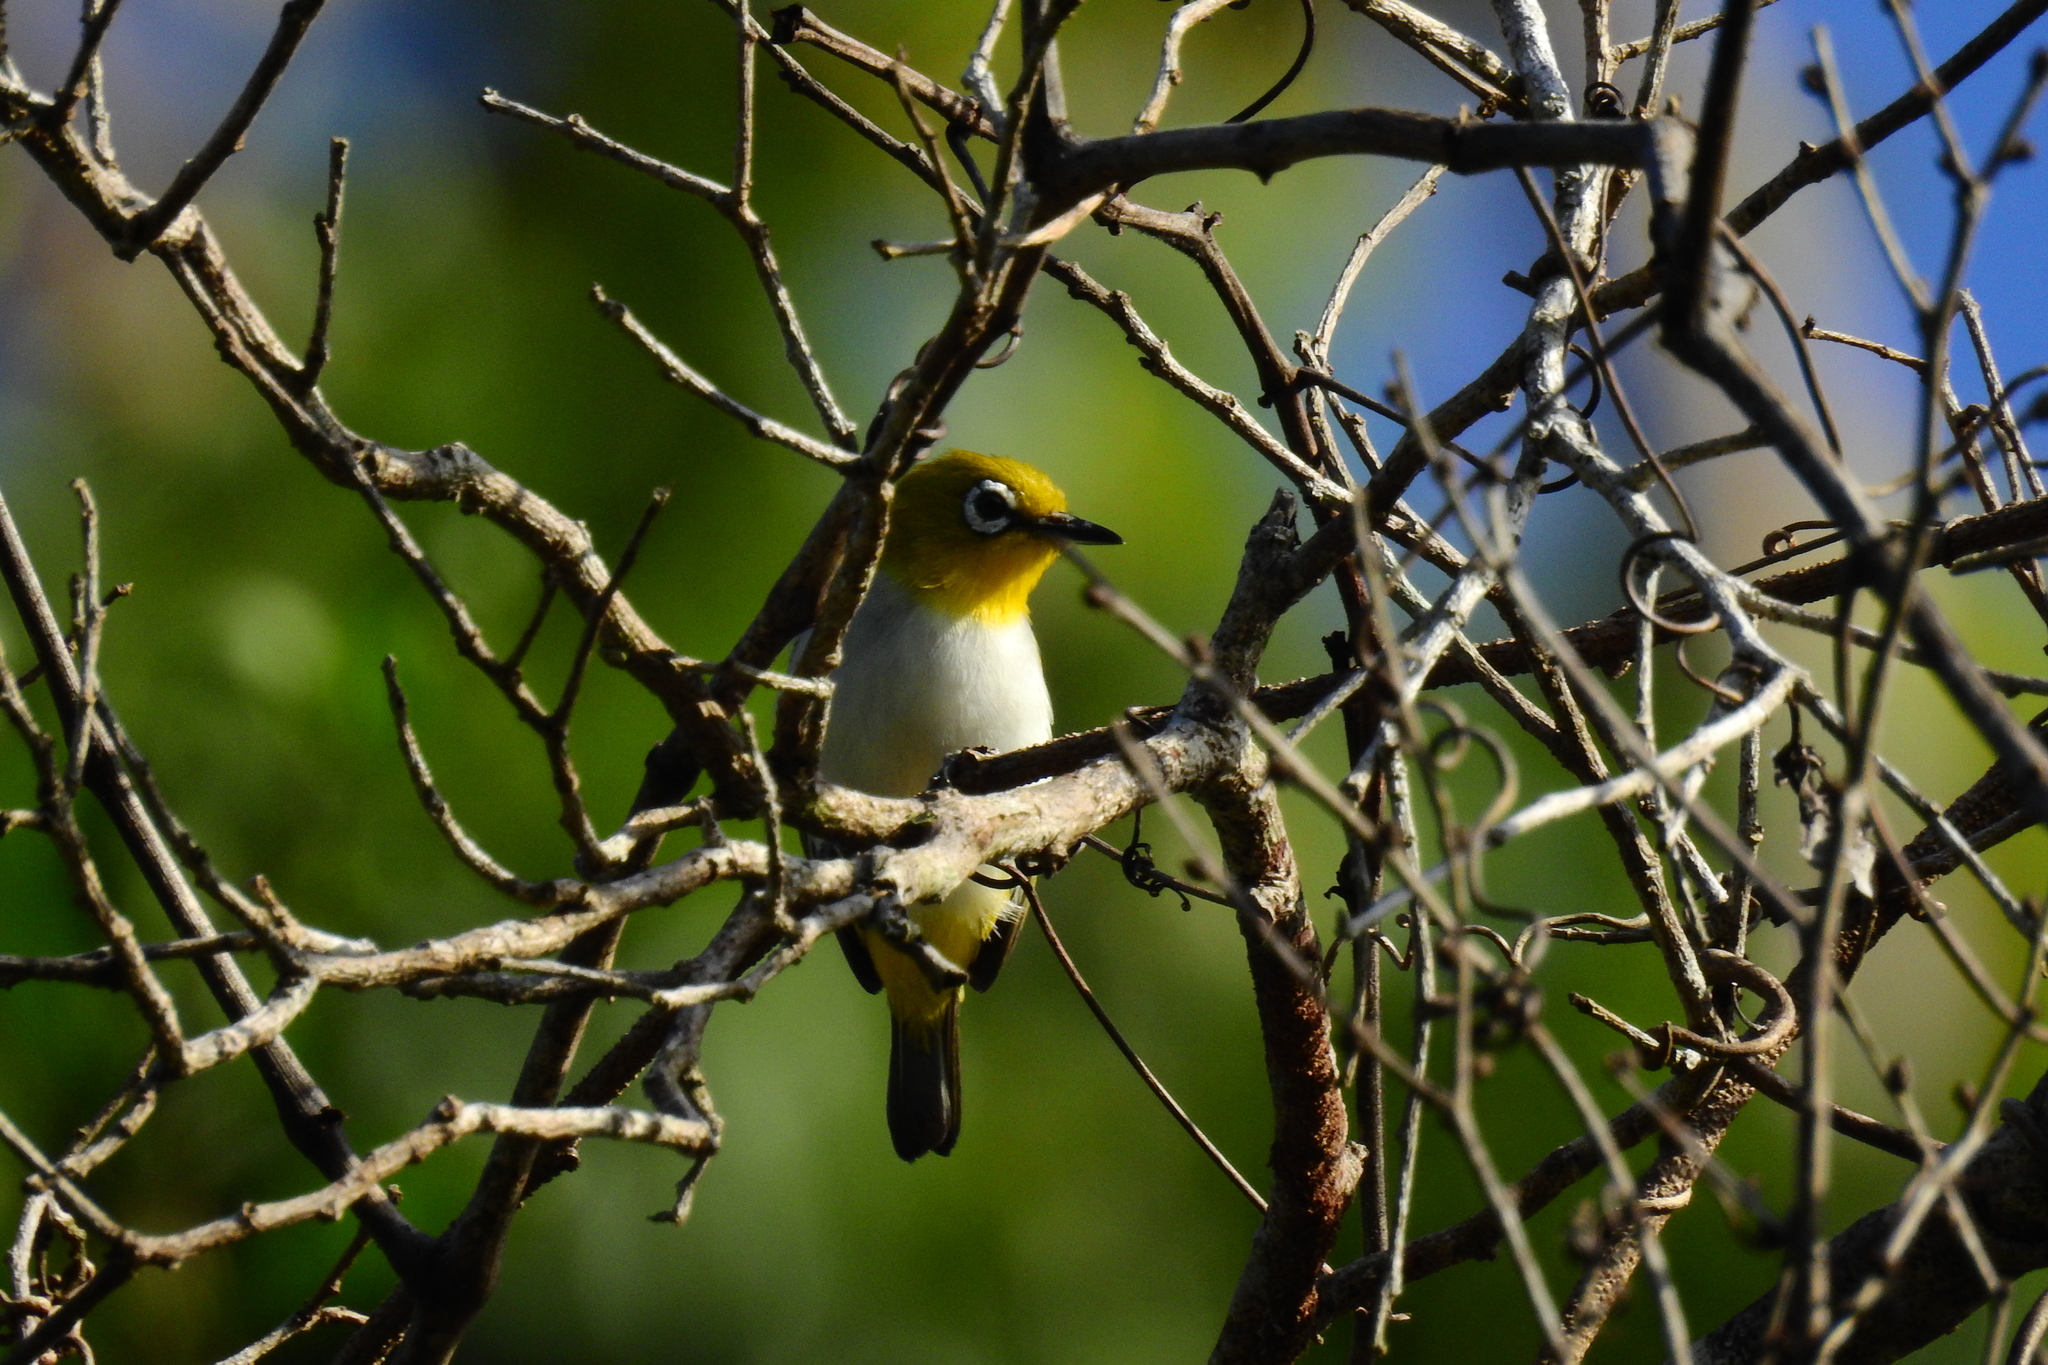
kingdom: Animalia
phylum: Chordata
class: Aves
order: Passeriformes
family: Zosteropidae
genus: Zosterops
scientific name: Zosterops consobrinorum
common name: Pale-bellied white-eye
